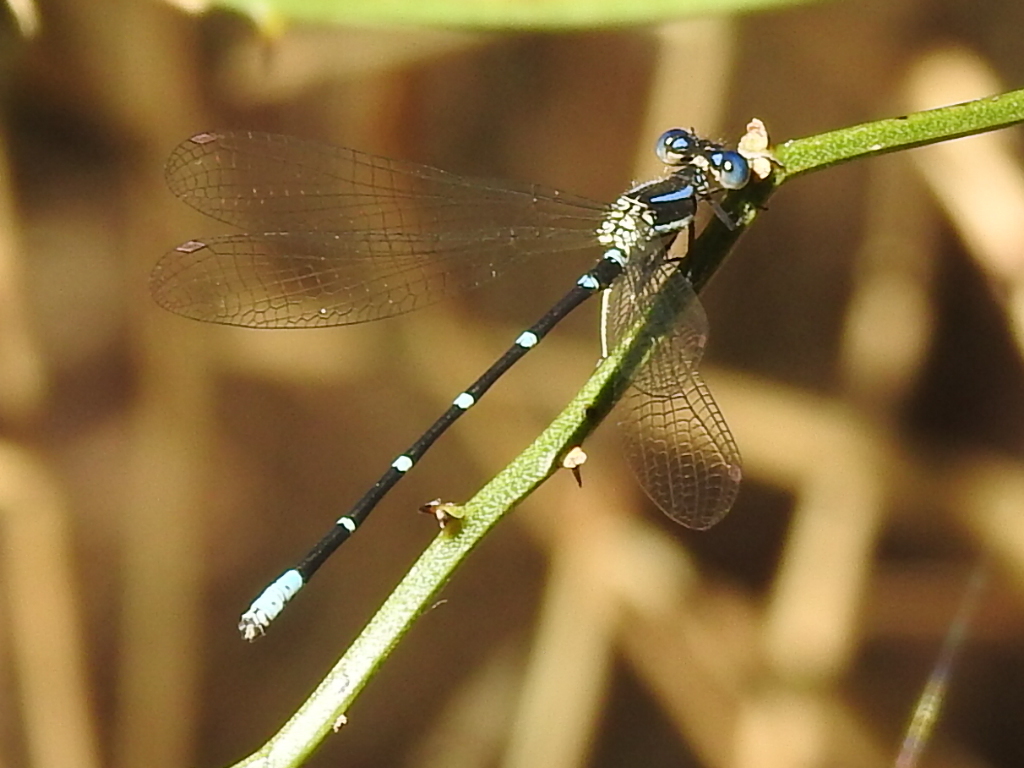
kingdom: Animalia
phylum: Arthropoda
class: Insecta
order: Odonata
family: Coenagrionidae
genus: Argia
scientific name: Argia sedula
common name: Blue-ringed dancer
